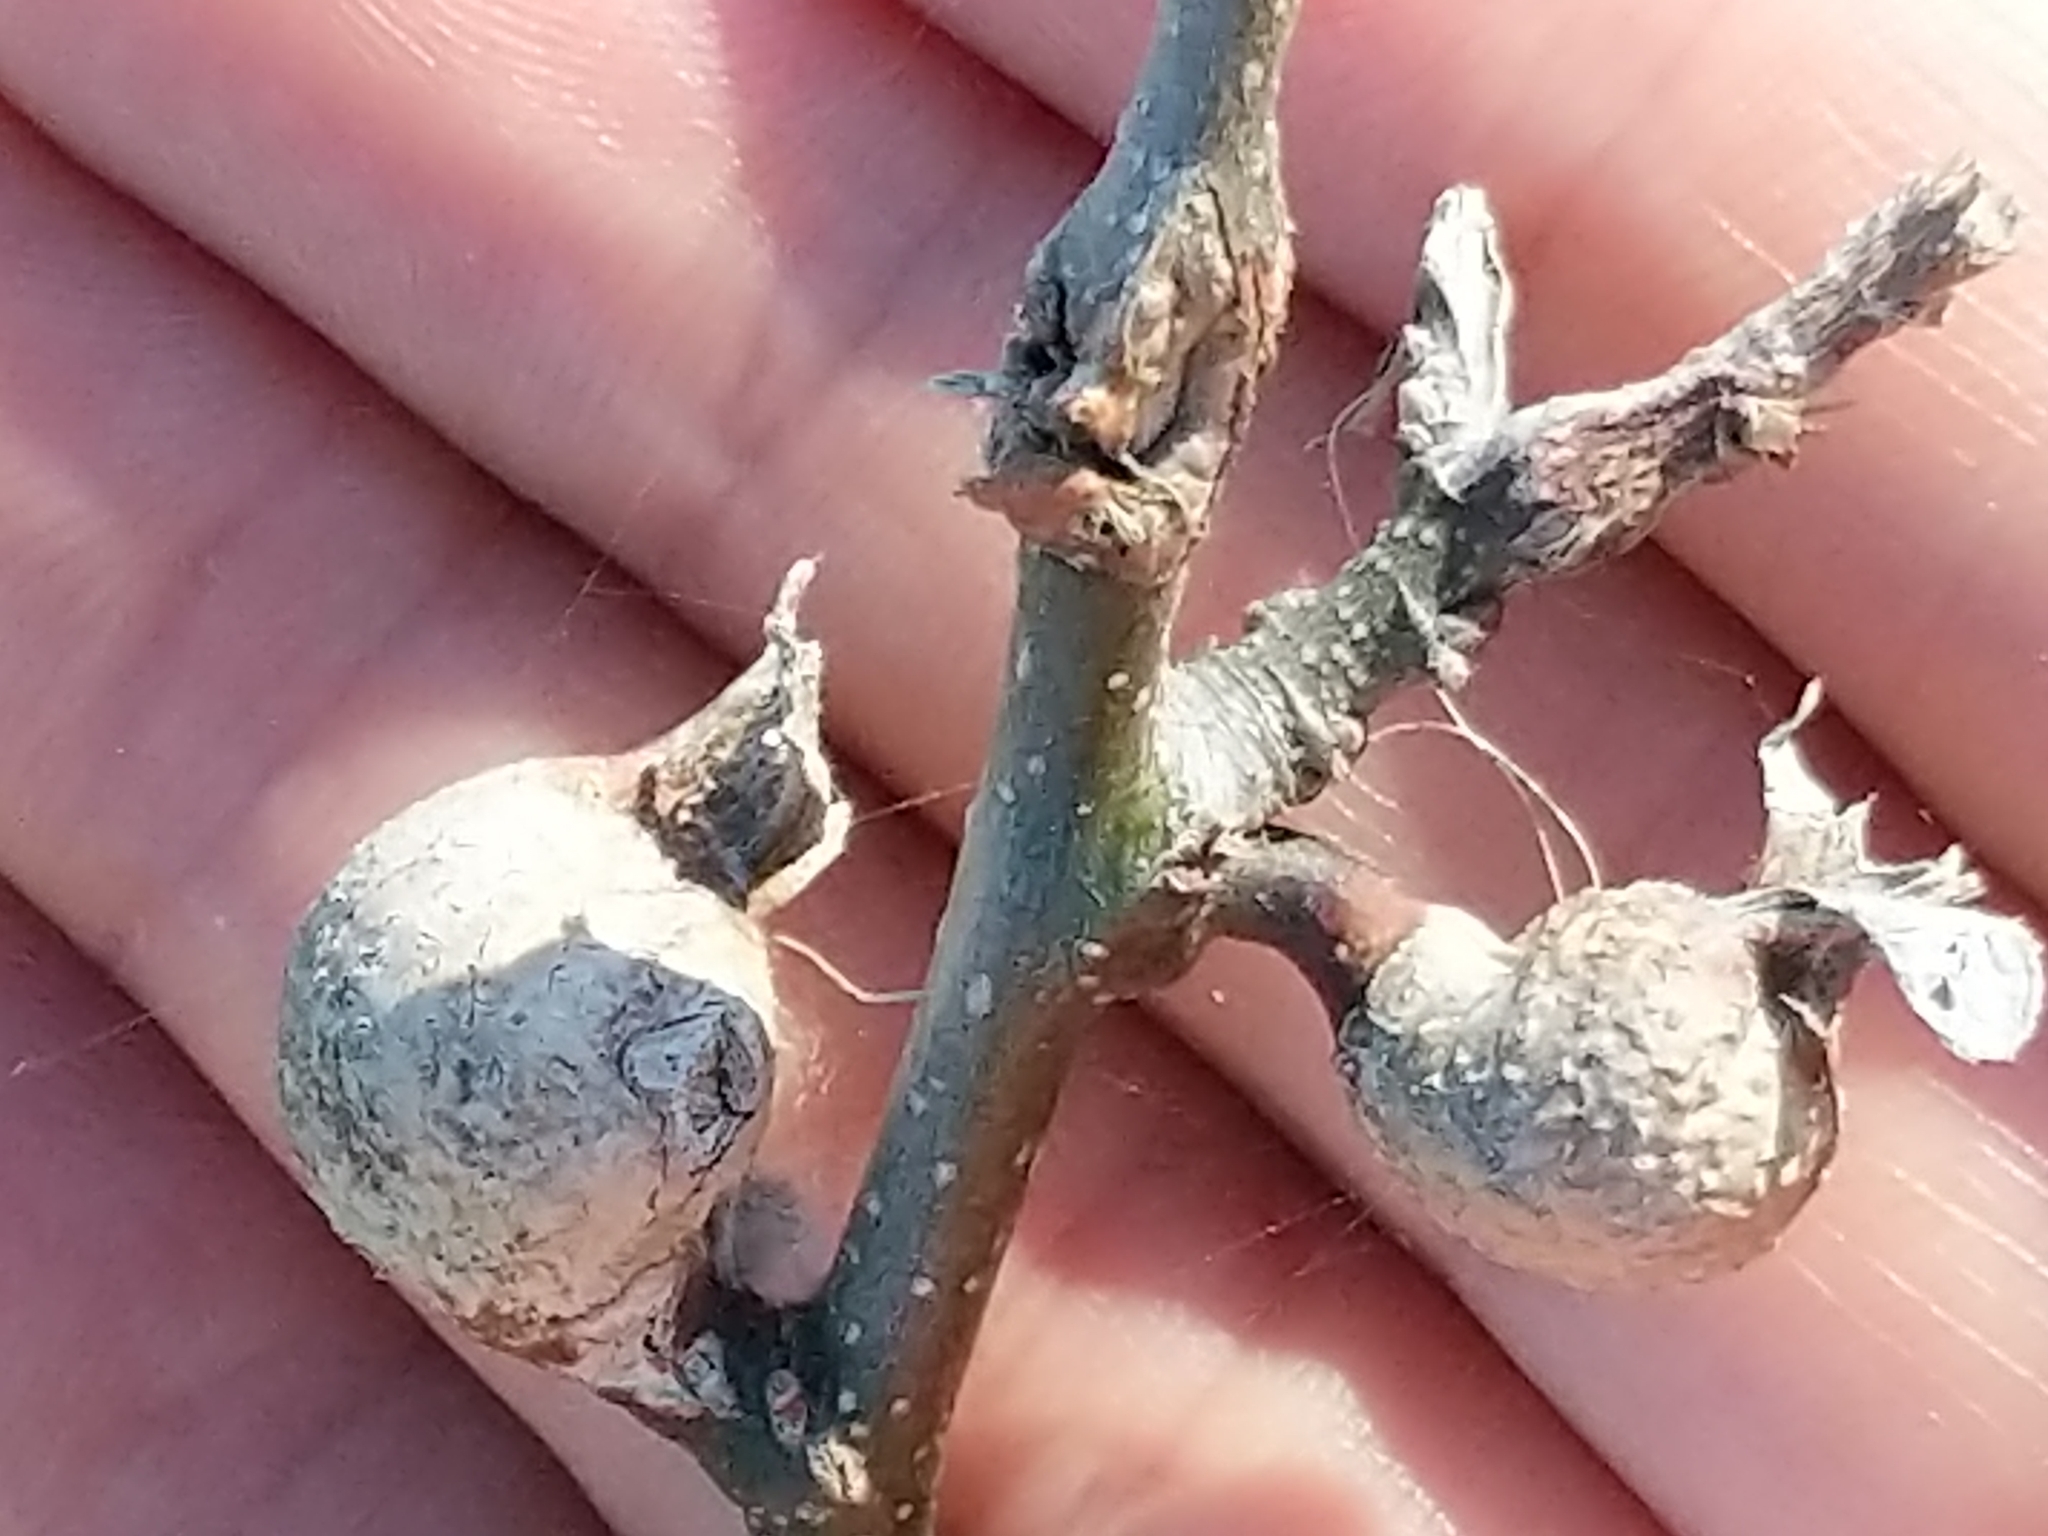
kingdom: Animalia
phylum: Arthropoda
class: Insecta
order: Hemiptera
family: Aphalaridae
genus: Pachypsylla
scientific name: Pachypsylla venusta
